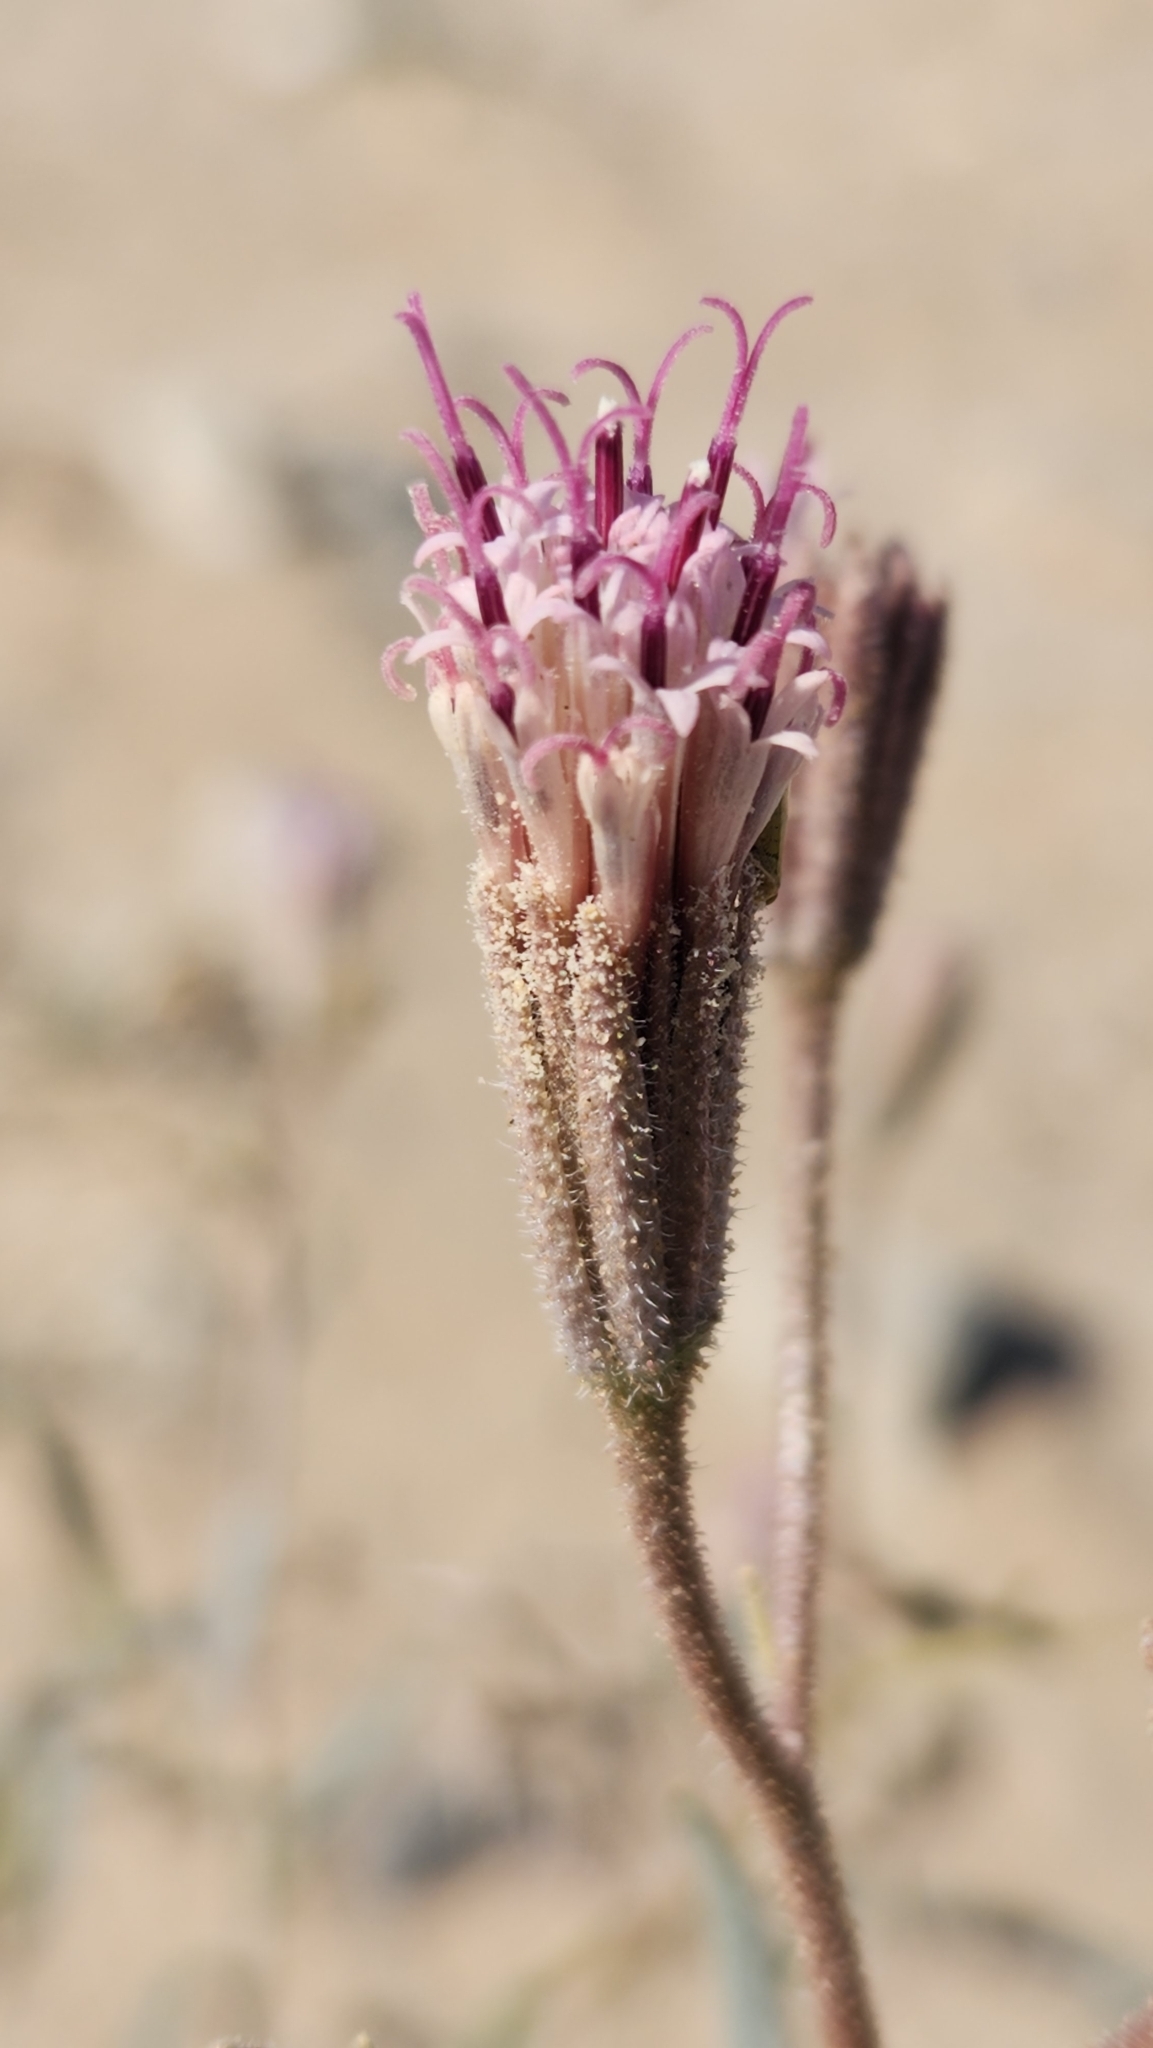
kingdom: Plantae
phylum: Tracheophyta
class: Magnoliopsida
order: Asterales
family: Asteraceae
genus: Palafoxia
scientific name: Palafoxia arida
